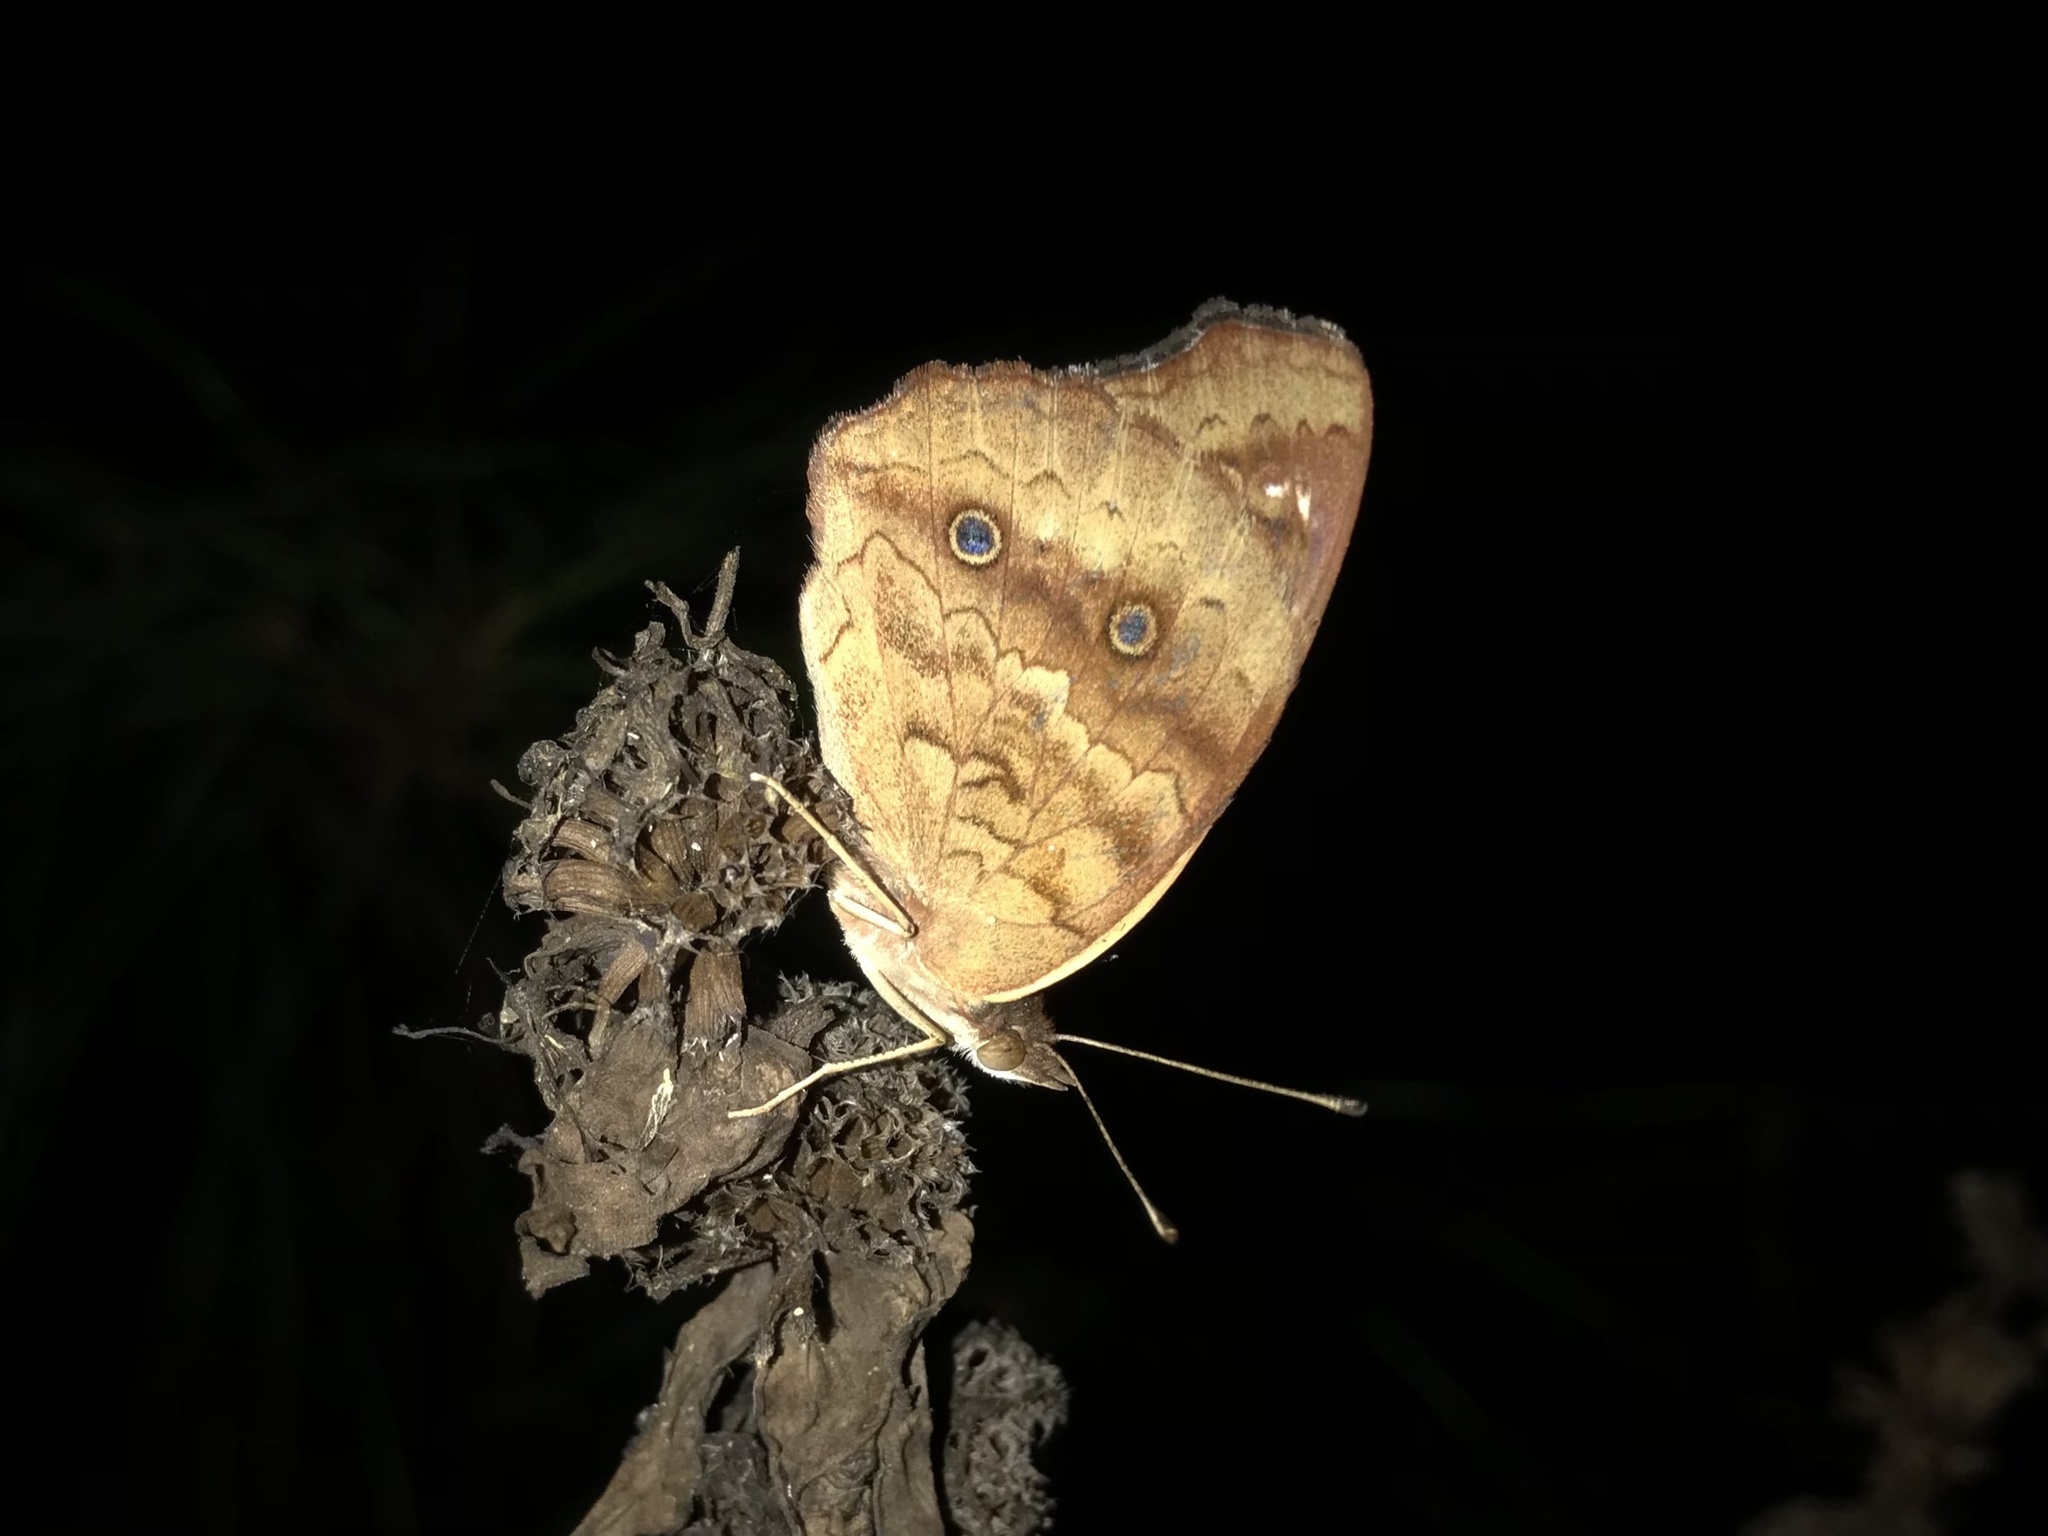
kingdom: Animalia
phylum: Arthropoda
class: Insecta
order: Lepidoptera
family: Nymphalidae
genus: Junonia
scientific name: Junonia coenia
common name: Common buckeye
